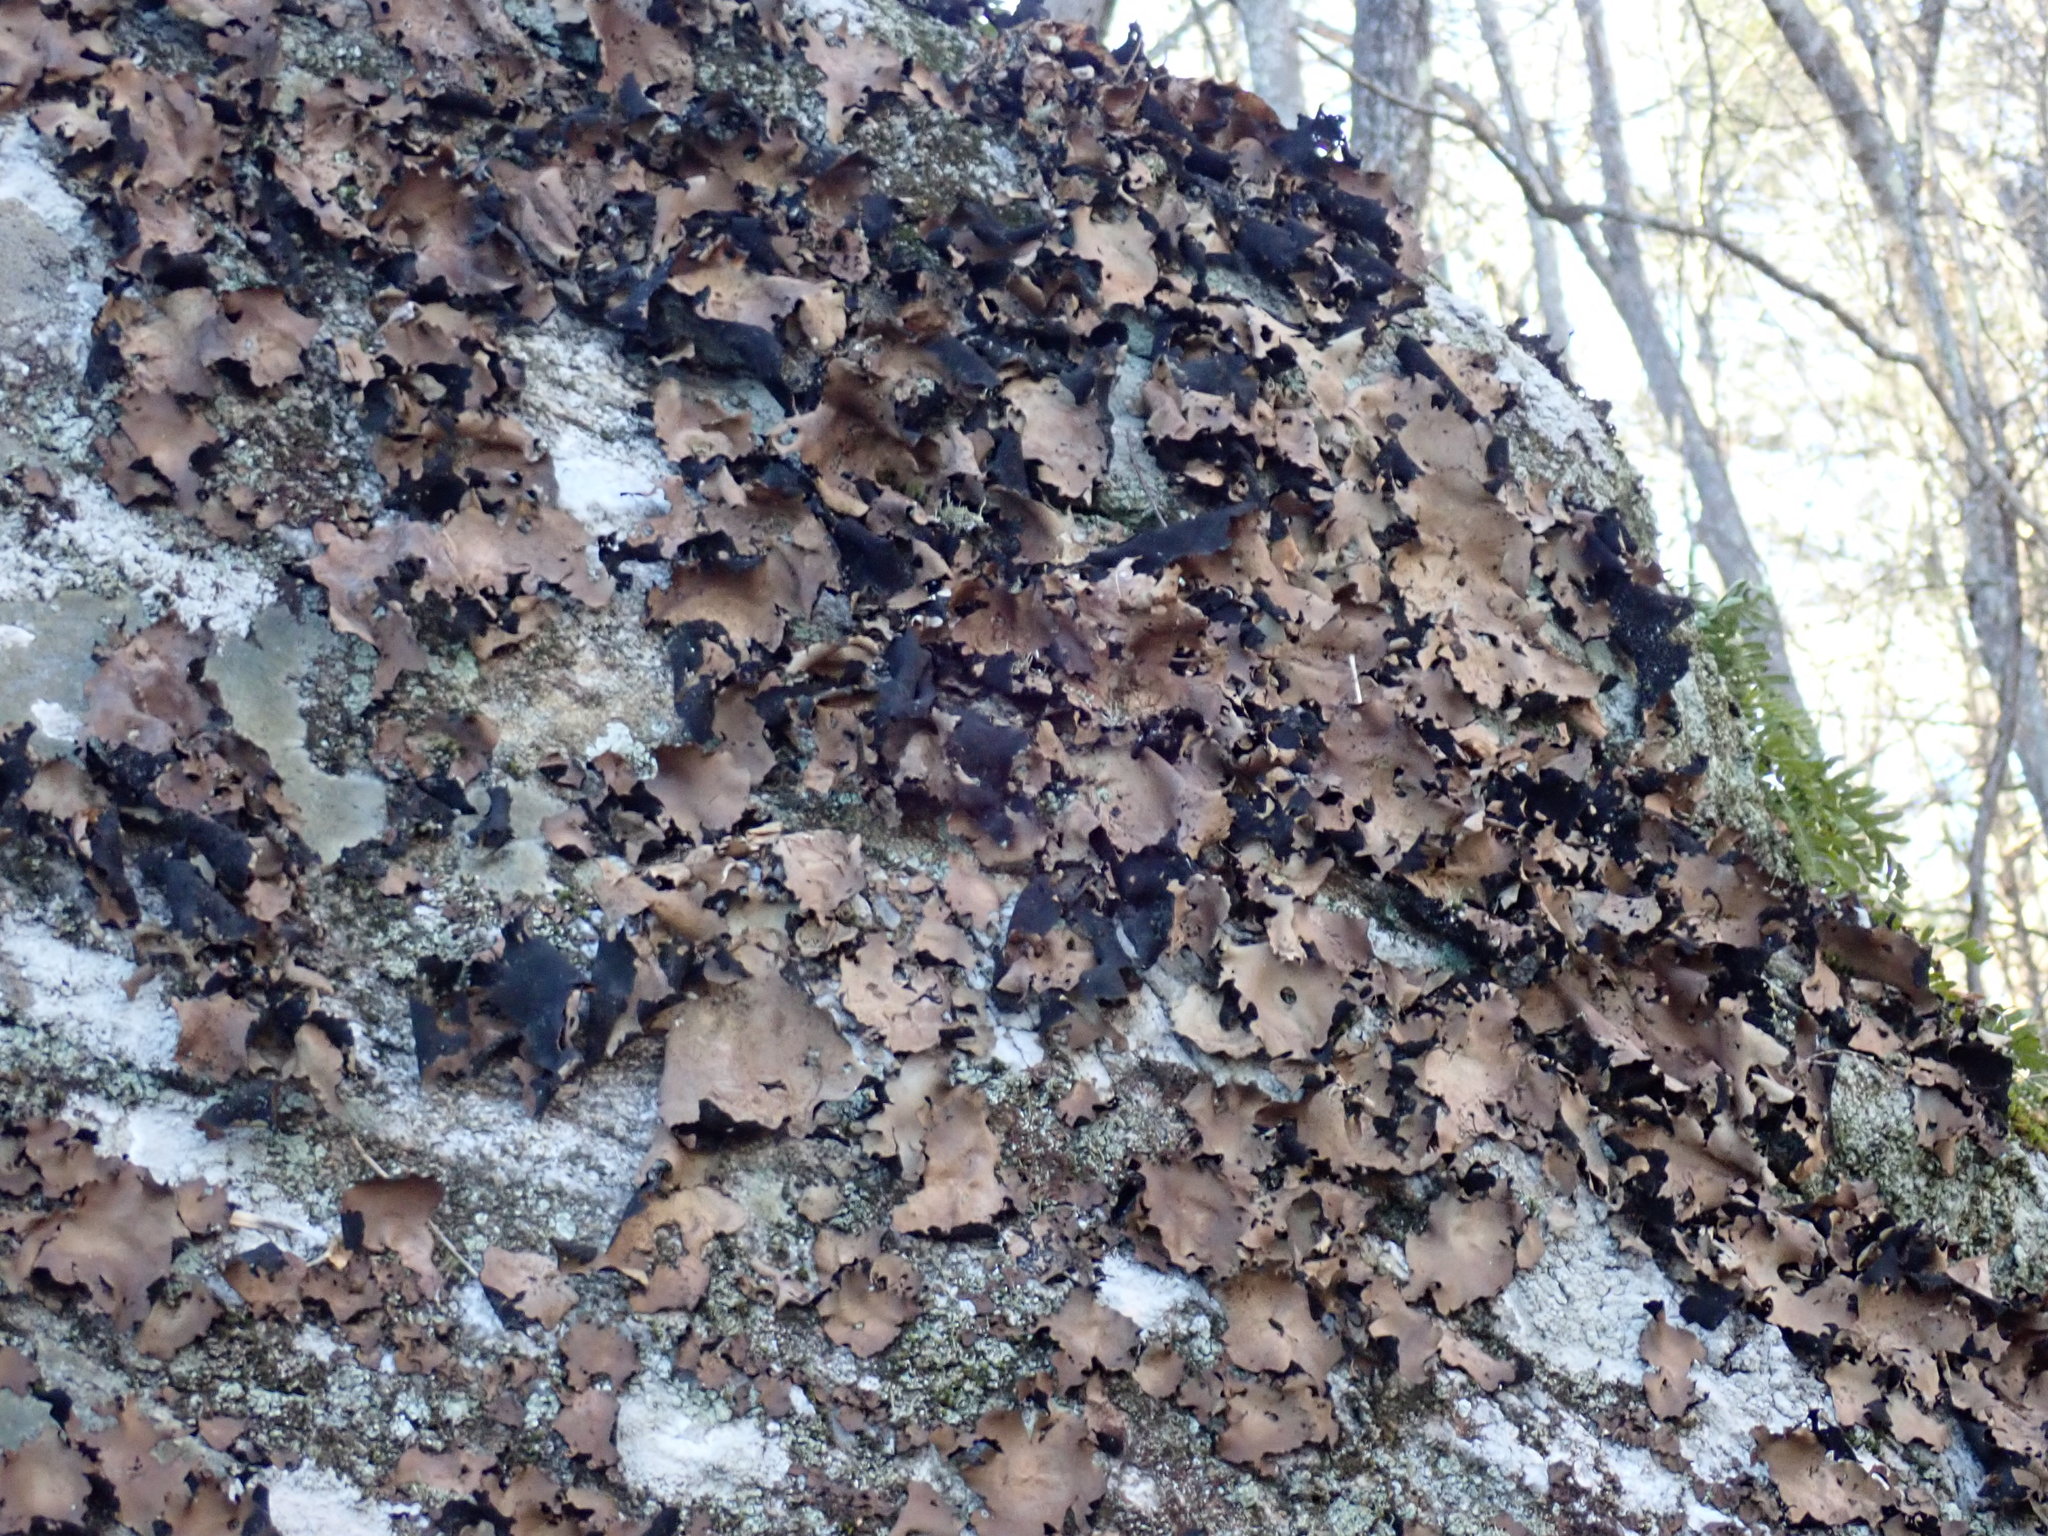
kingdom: Fungi
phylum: Ascomycota
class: Lecanoromycetes
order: Umbilicariales
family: Umbilicariaceae
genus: Umbilicaria
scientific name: Umbilicaria mammulata
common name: Smooth rock tripe
